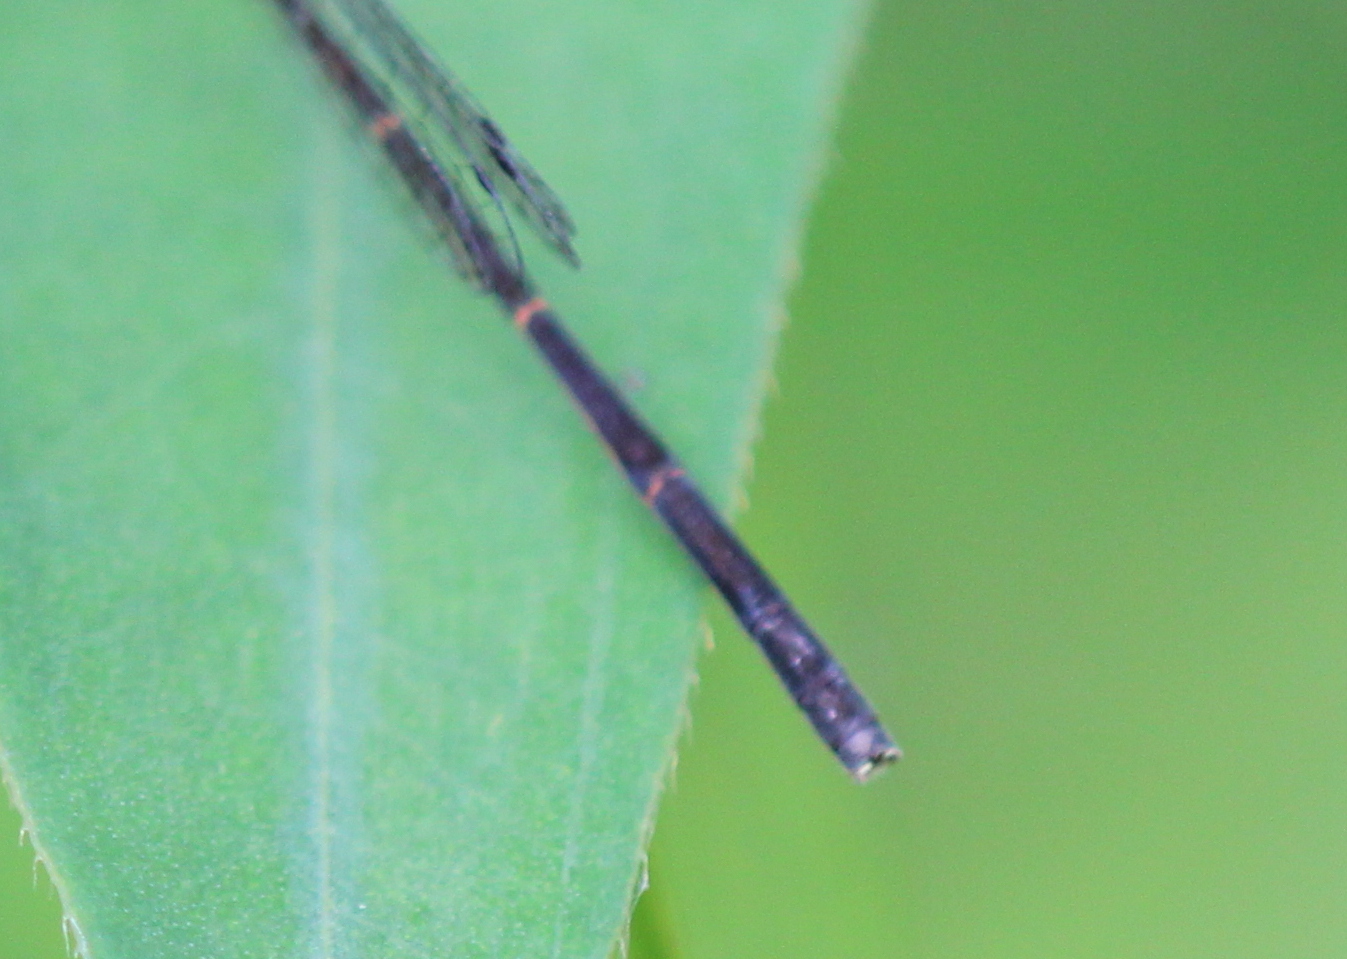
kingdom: Animalia
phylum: Arthropoda
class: Insecta
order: Odonata
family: Coenagrionidae
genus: Ischnura
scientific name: Ischnura posita
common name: Fragile forktail
